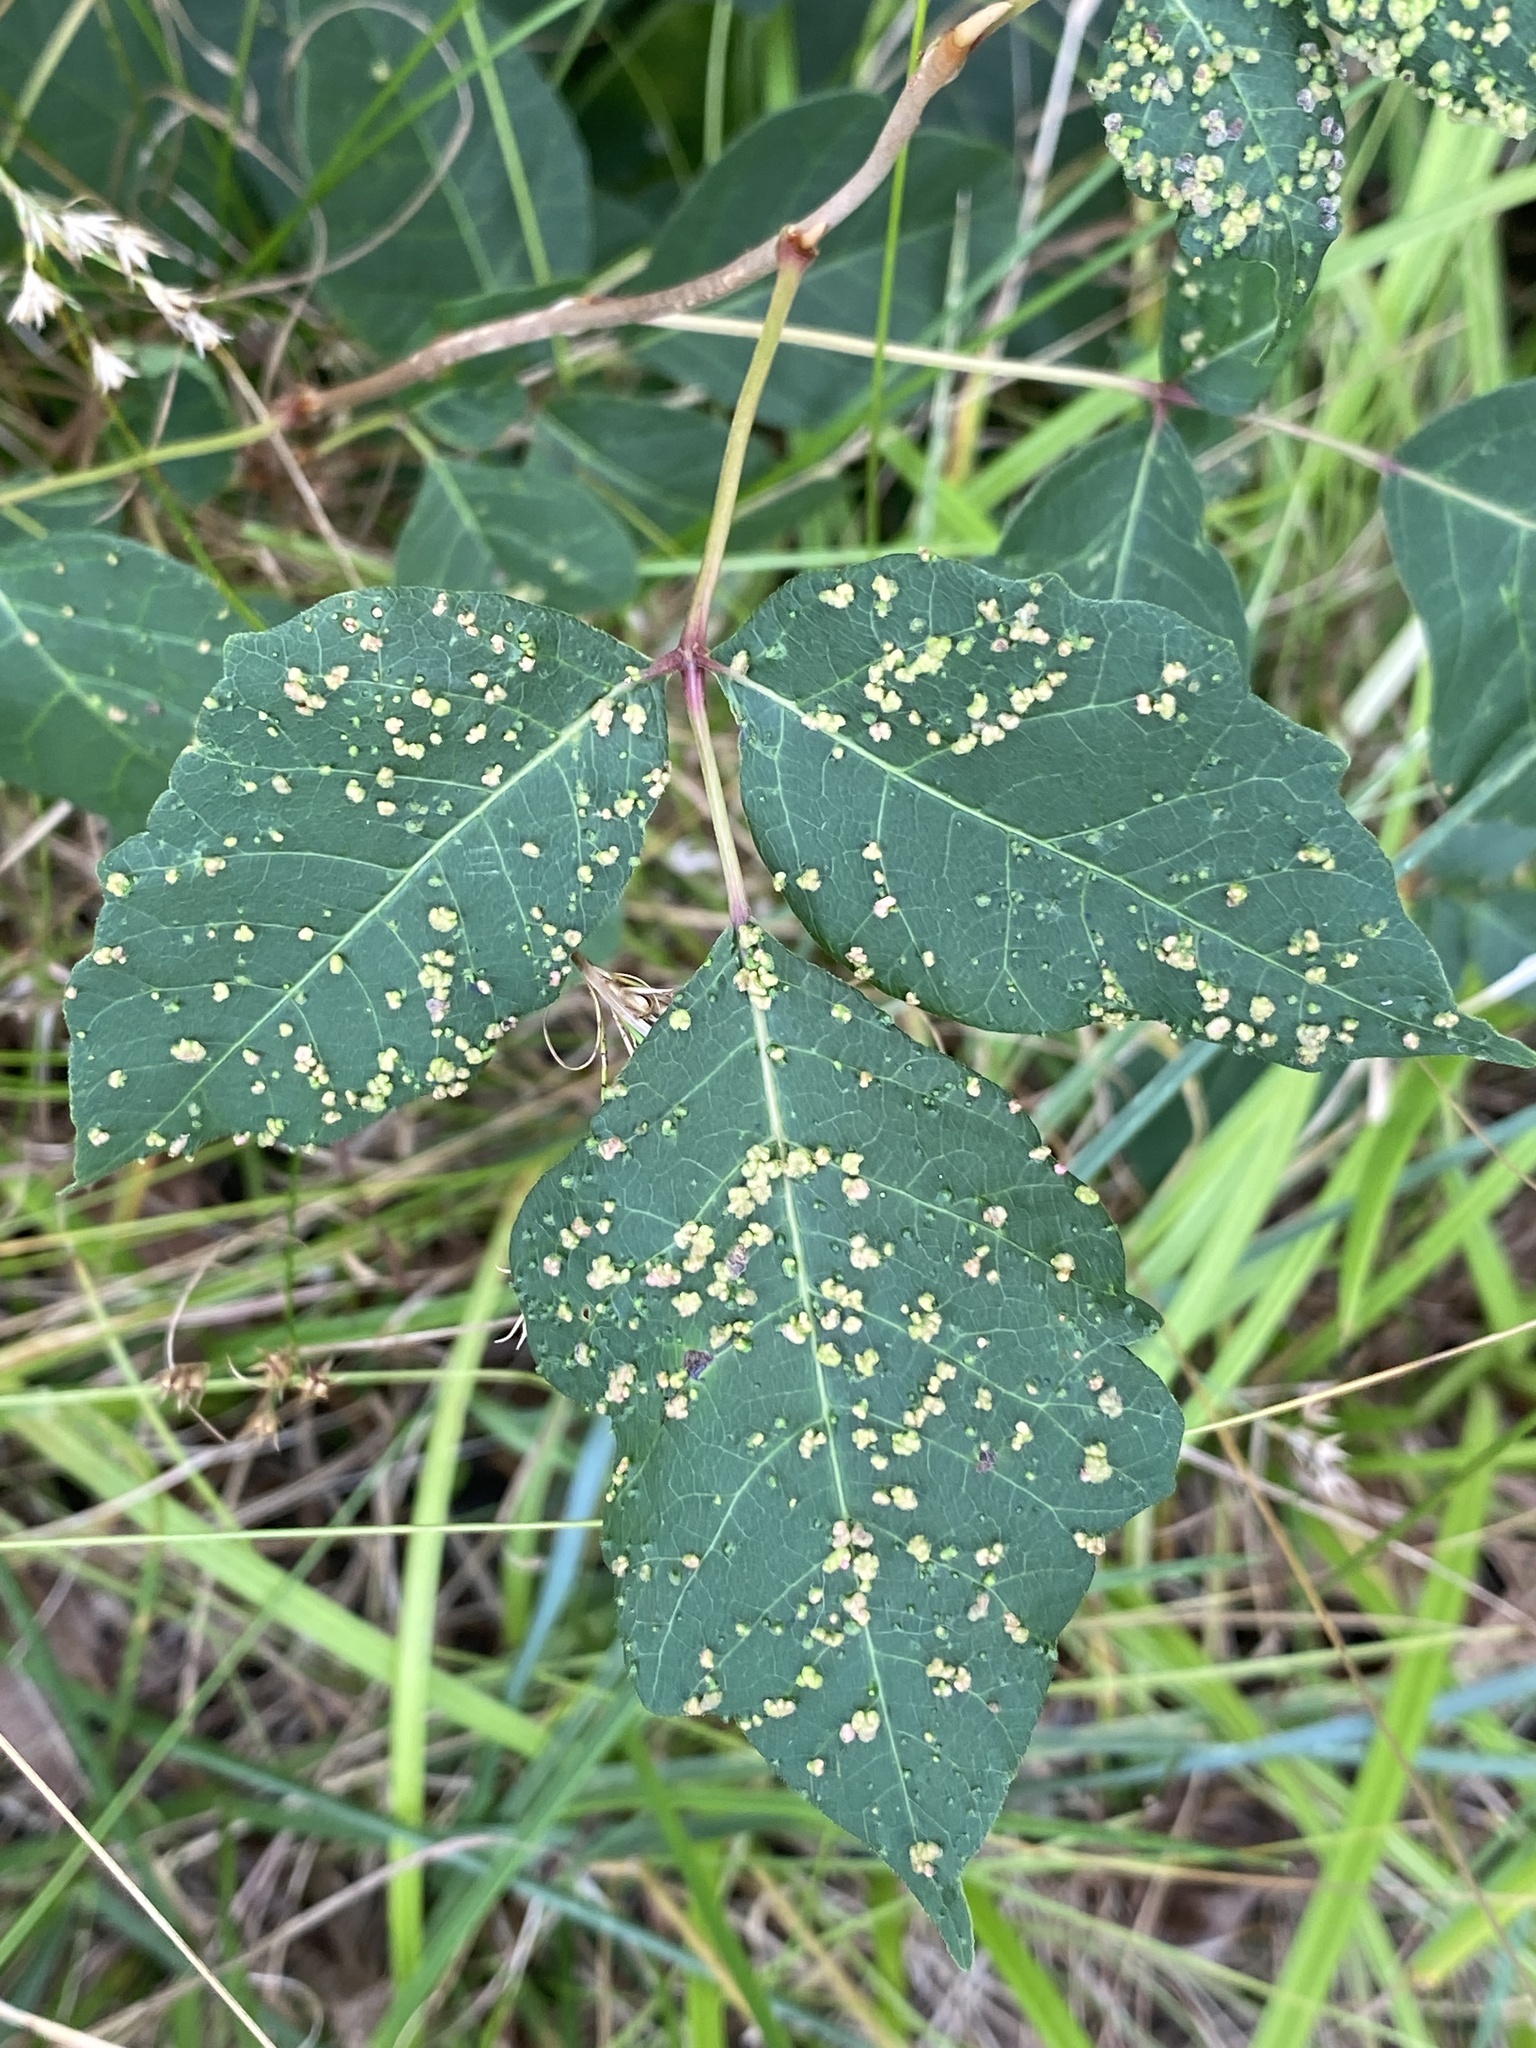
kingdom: Animalia
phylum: Arthropoda
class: Arachnida
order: Trombidiformes
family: Eriophyidae
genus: Aculops
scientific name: Aculops
